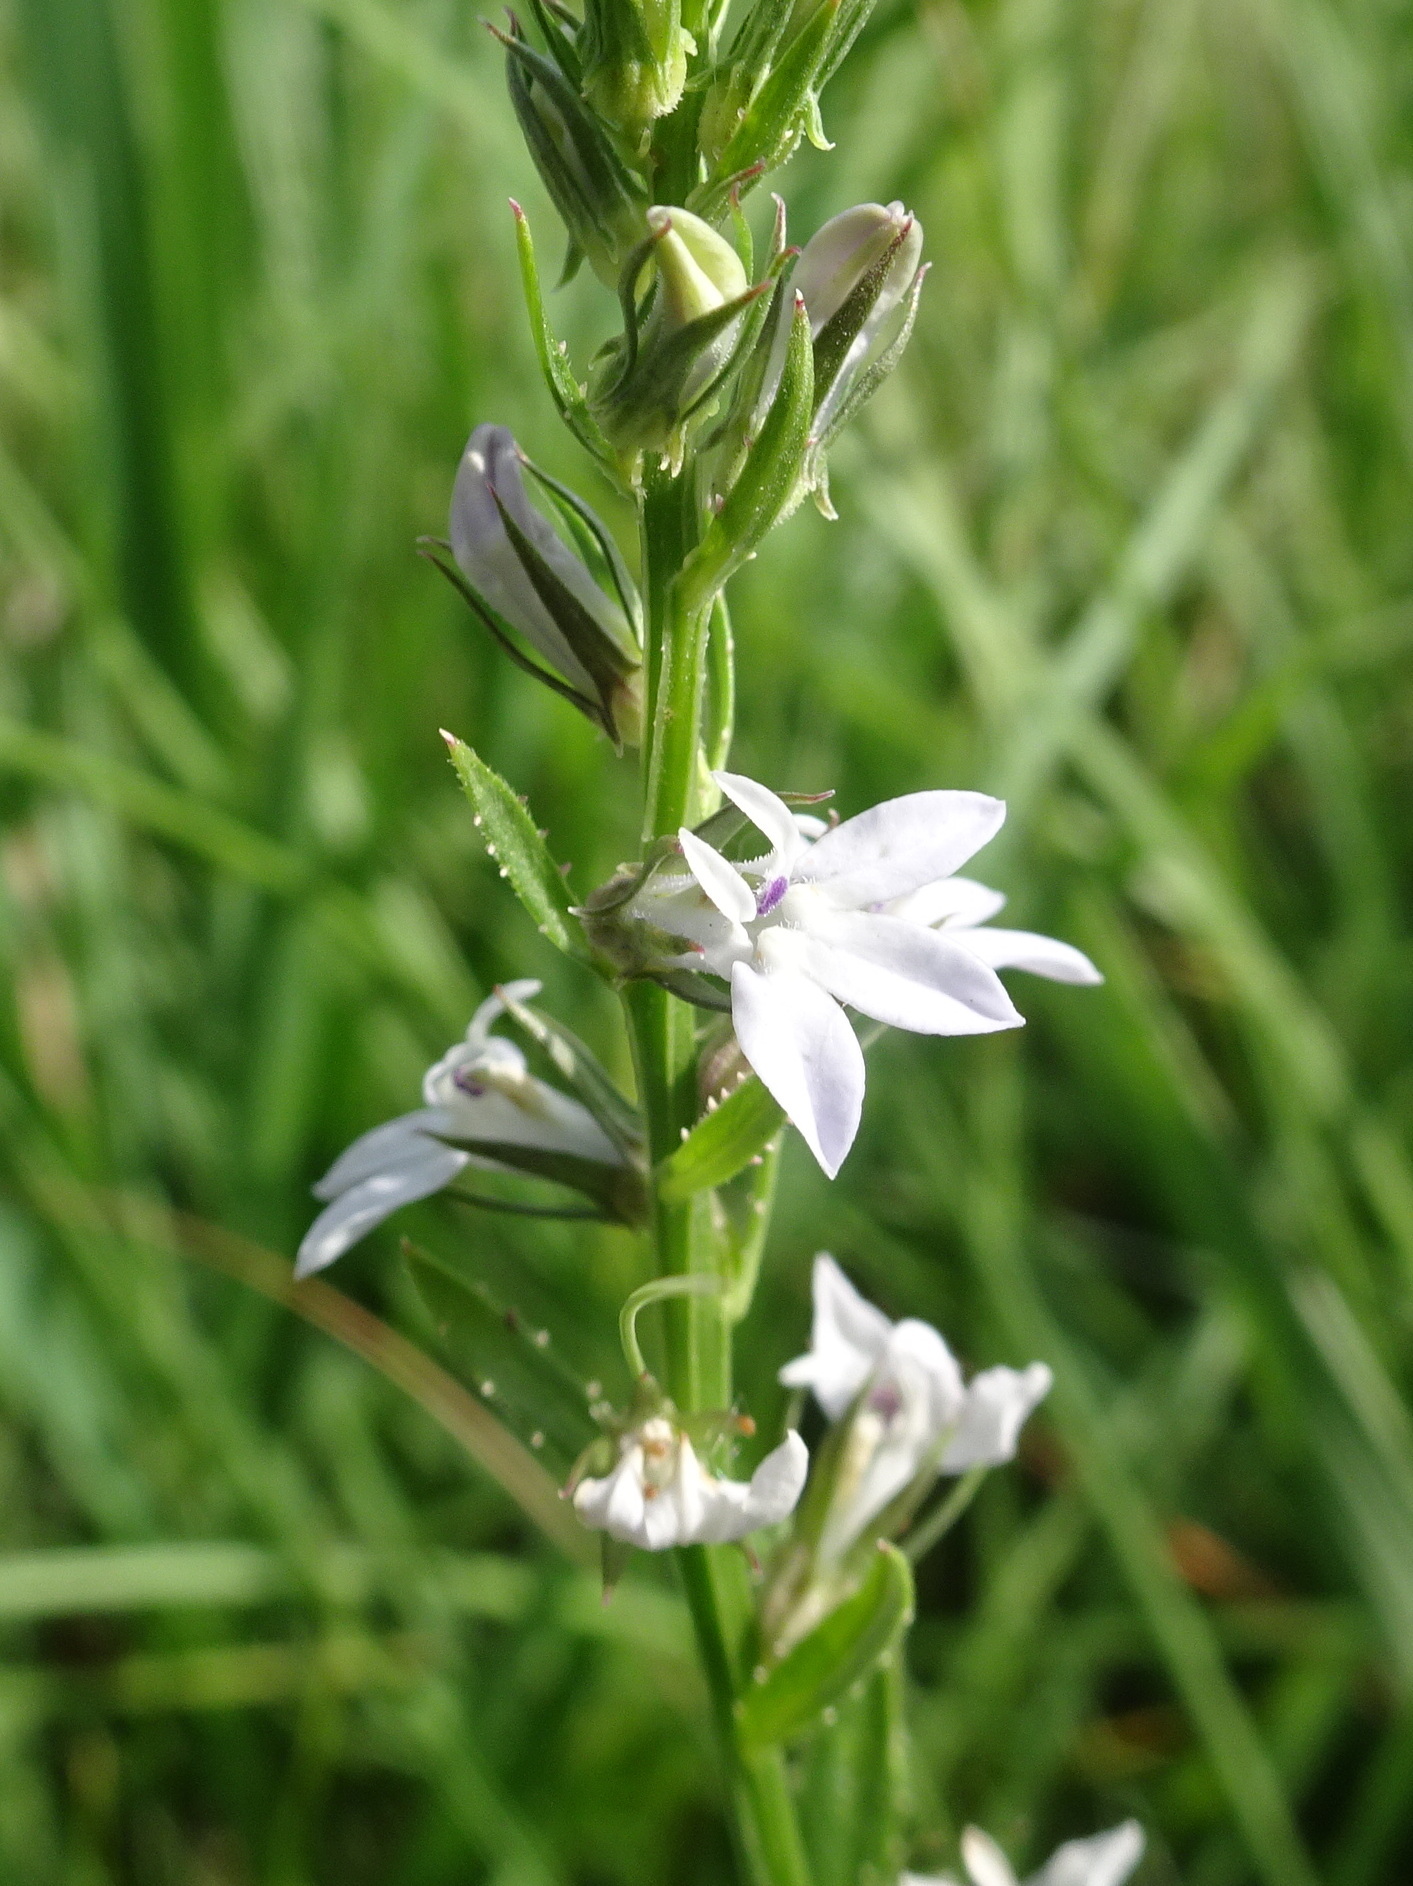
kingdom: Plantae
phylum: Tracheophyta
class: Magnoliopsida
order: Asterales
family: Campanulaceae
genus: Lobelia
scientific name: Lobelia spicata
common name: Pale-spike lobelia
